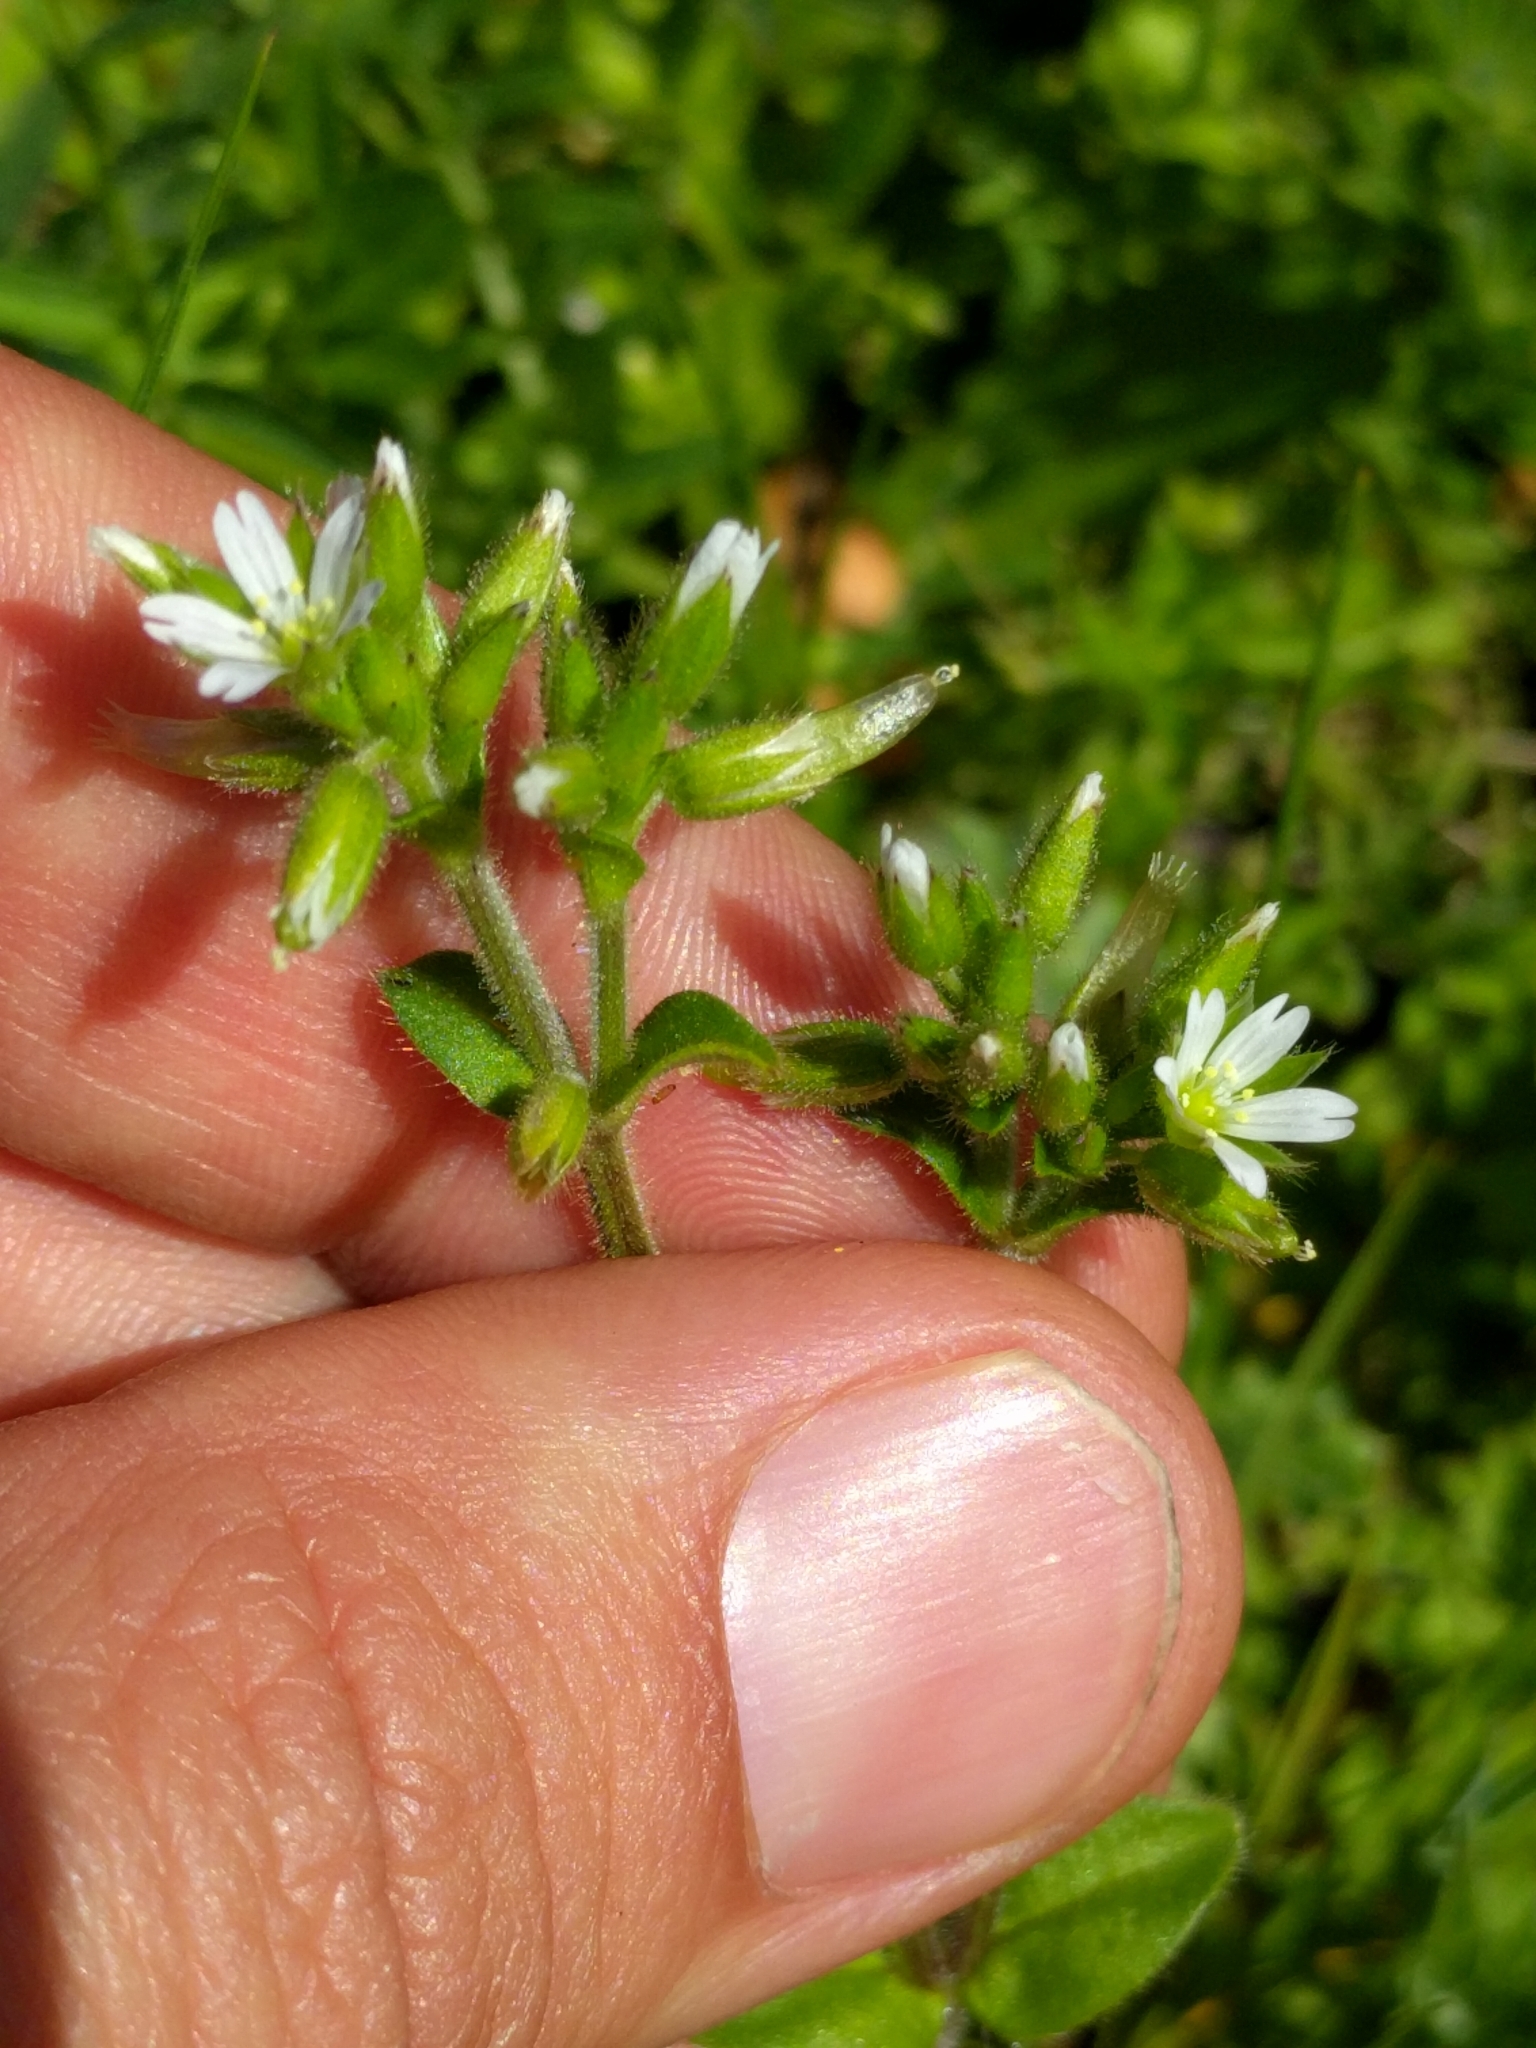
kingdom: Plantae
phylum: Tracheophyta
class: Magnoliopsida
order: Caryophyllales
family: Caryophyllaceae
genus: Cerastium
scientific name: Cerastium glomeratum
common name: Sticky chickweed
